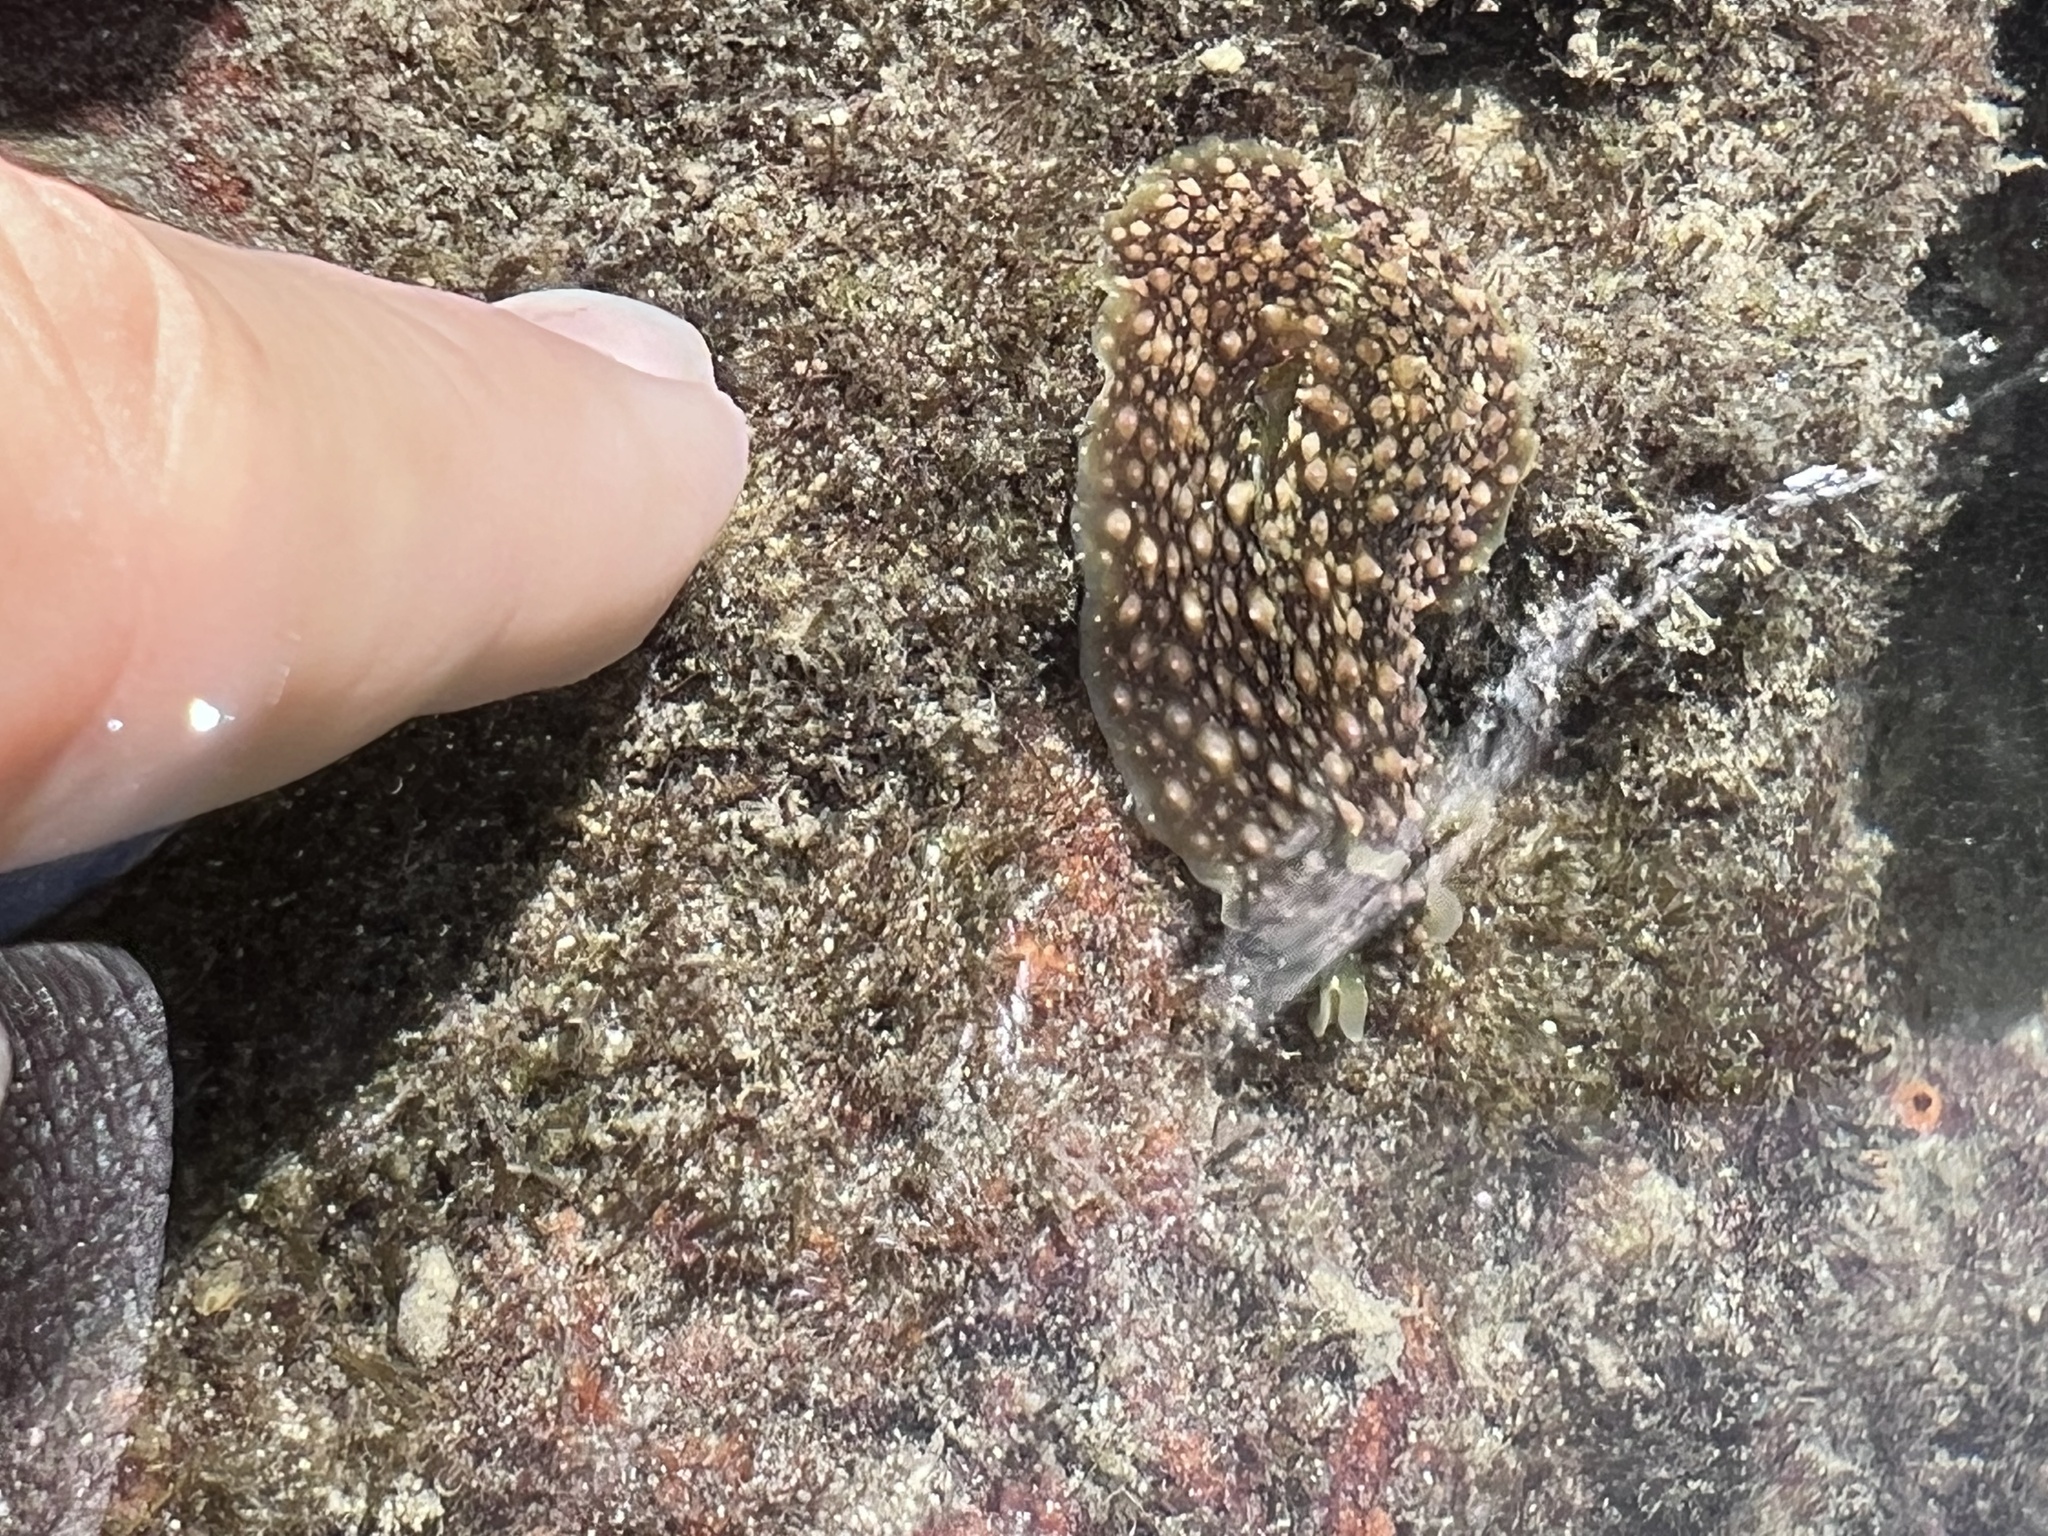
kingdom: Animalia
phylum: Mollusca
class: Gastropoda
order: Aplysiida
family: Aplysiidae
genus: Dolabrifera
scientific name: Dolabrifera nicaraguana
